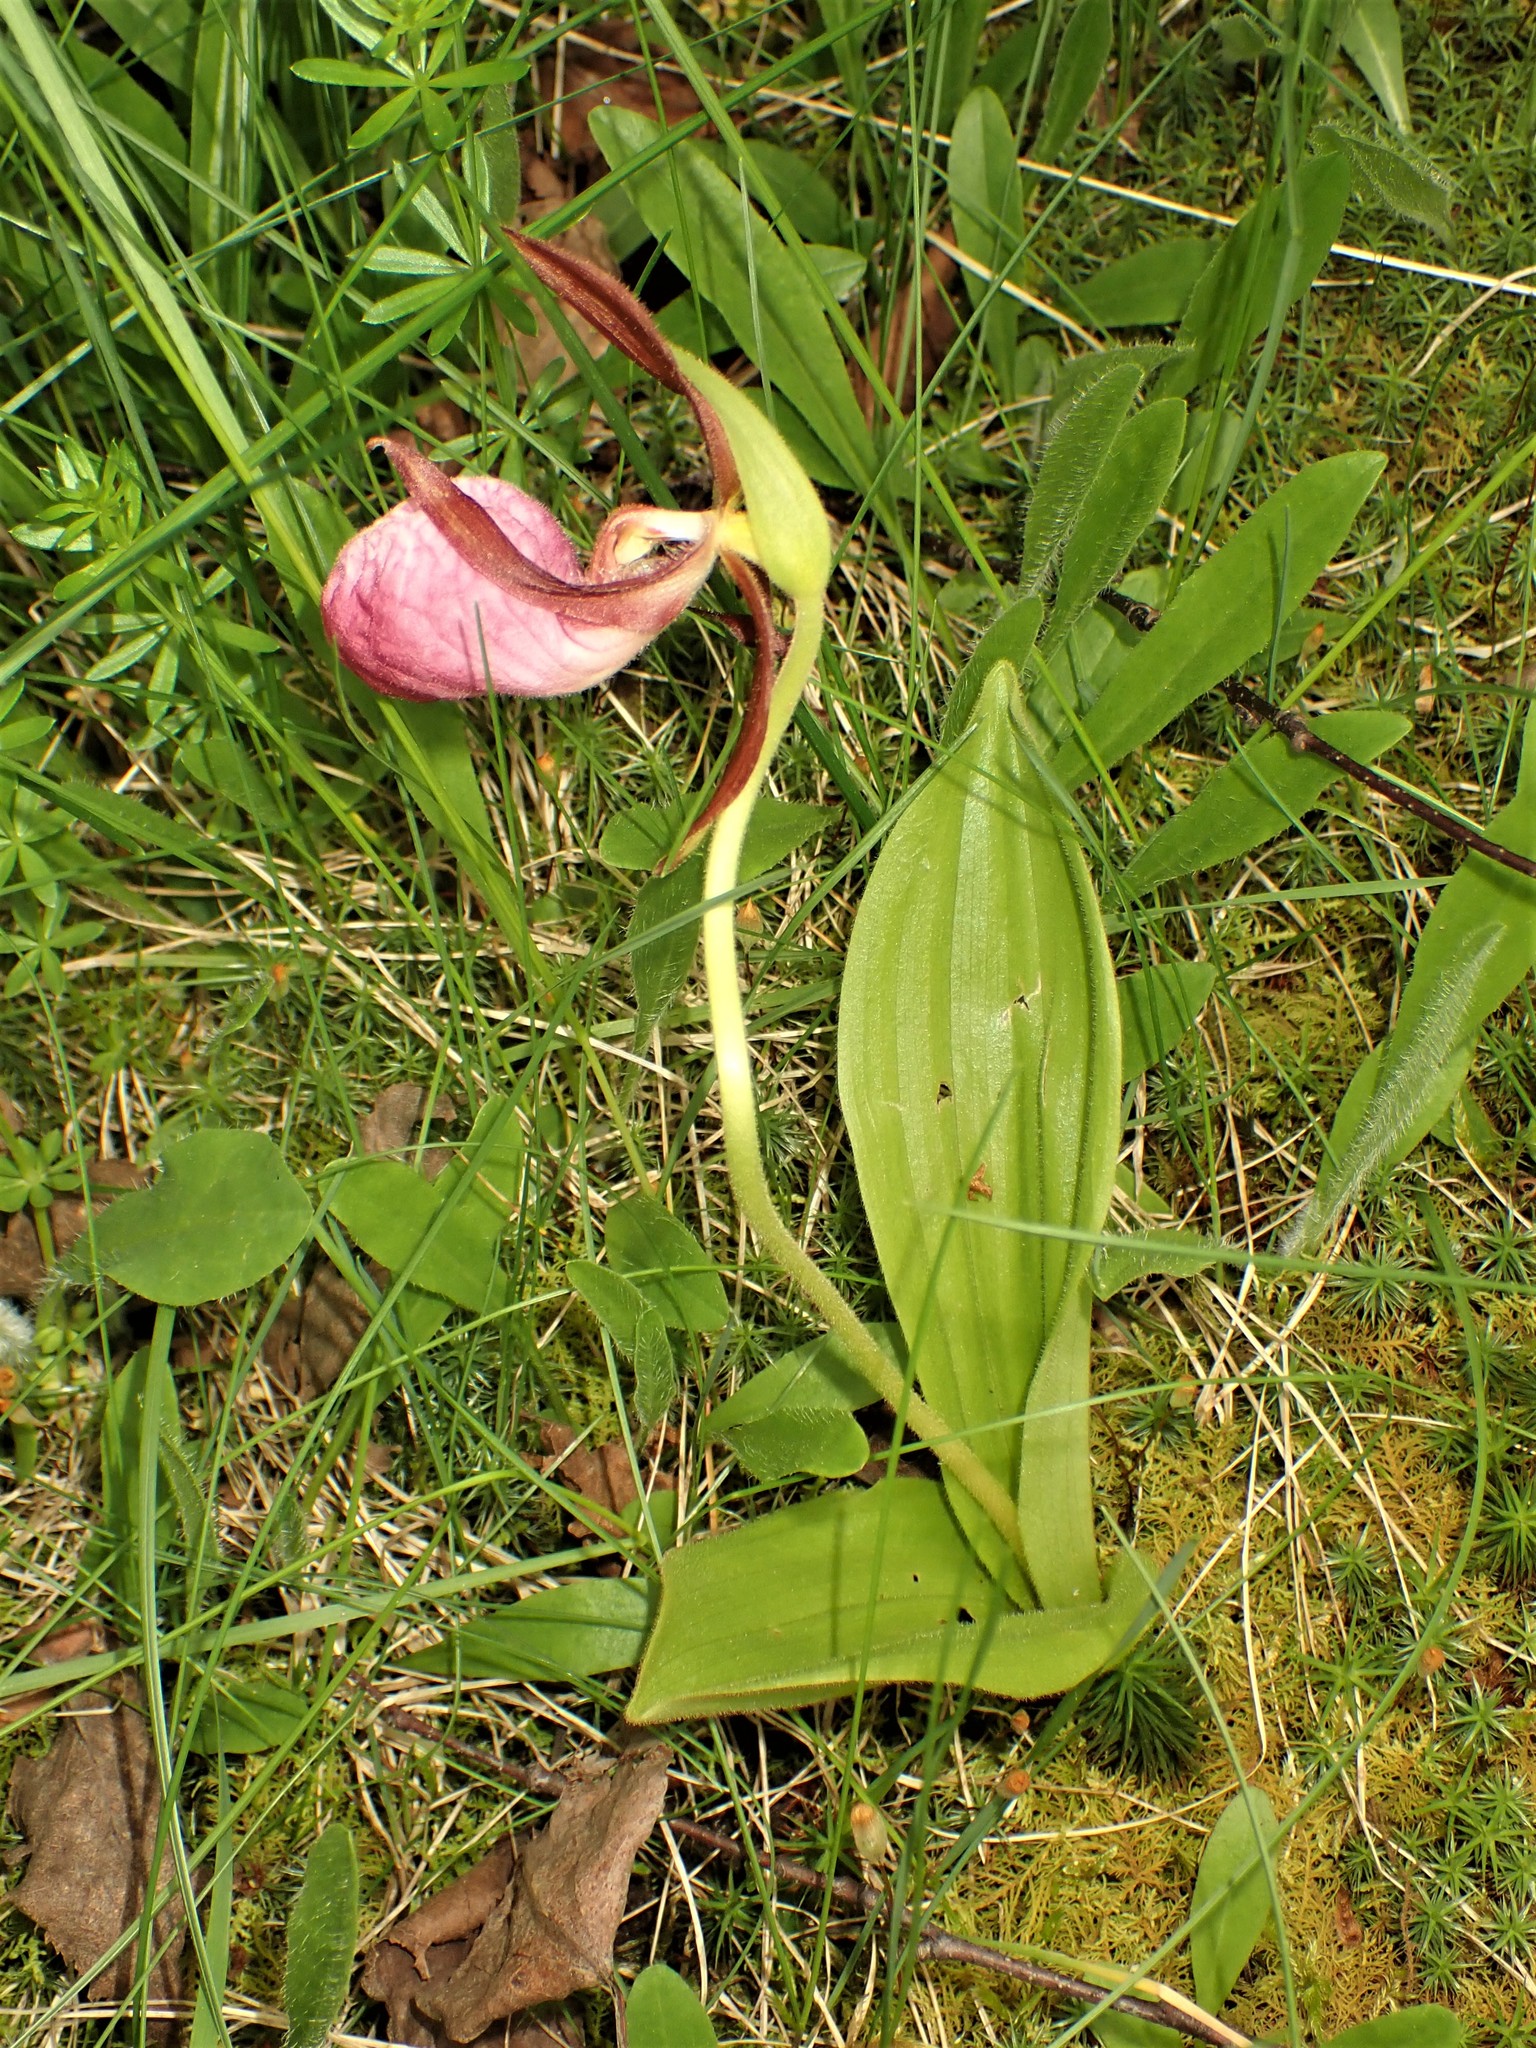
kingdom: Plantae
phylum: Tracheophyta
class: Liliopsida
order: Asparagales
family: Orchidaceae
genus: Cypripedium
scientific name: Cypripedium acaule
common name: Pink lady's-slipper
